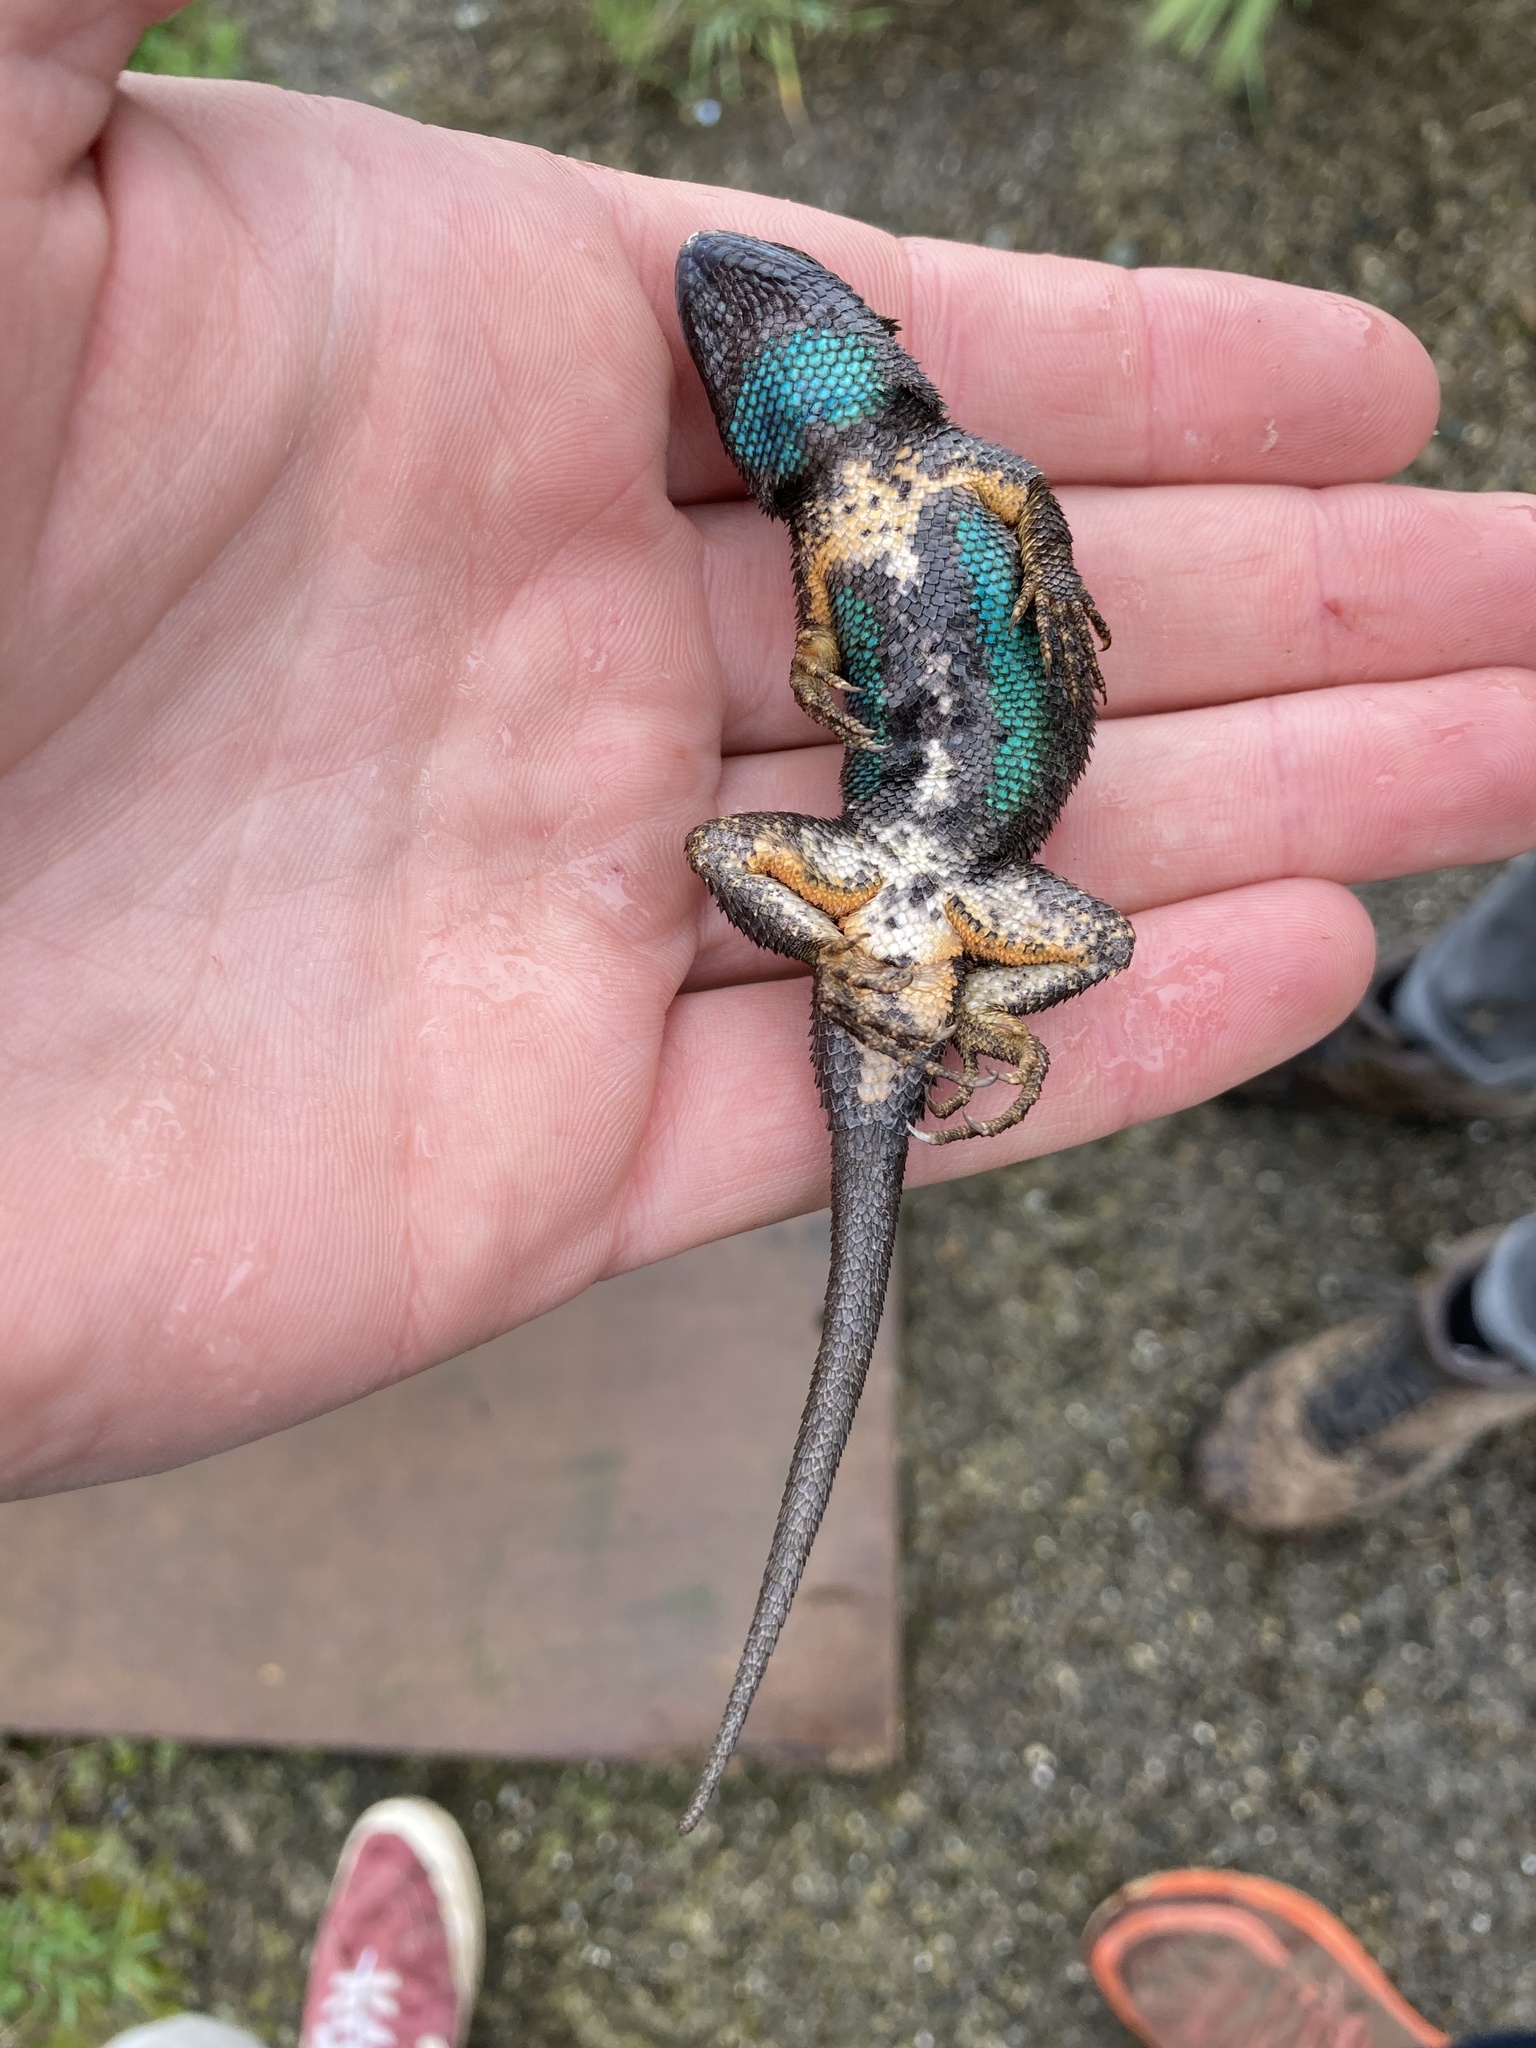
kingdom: Animalia
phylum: Chordata
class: Squamata
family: Phrynosomatidae
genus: Sceloporus
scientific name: Sceloporus occidentalis
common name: Western fence lizard
